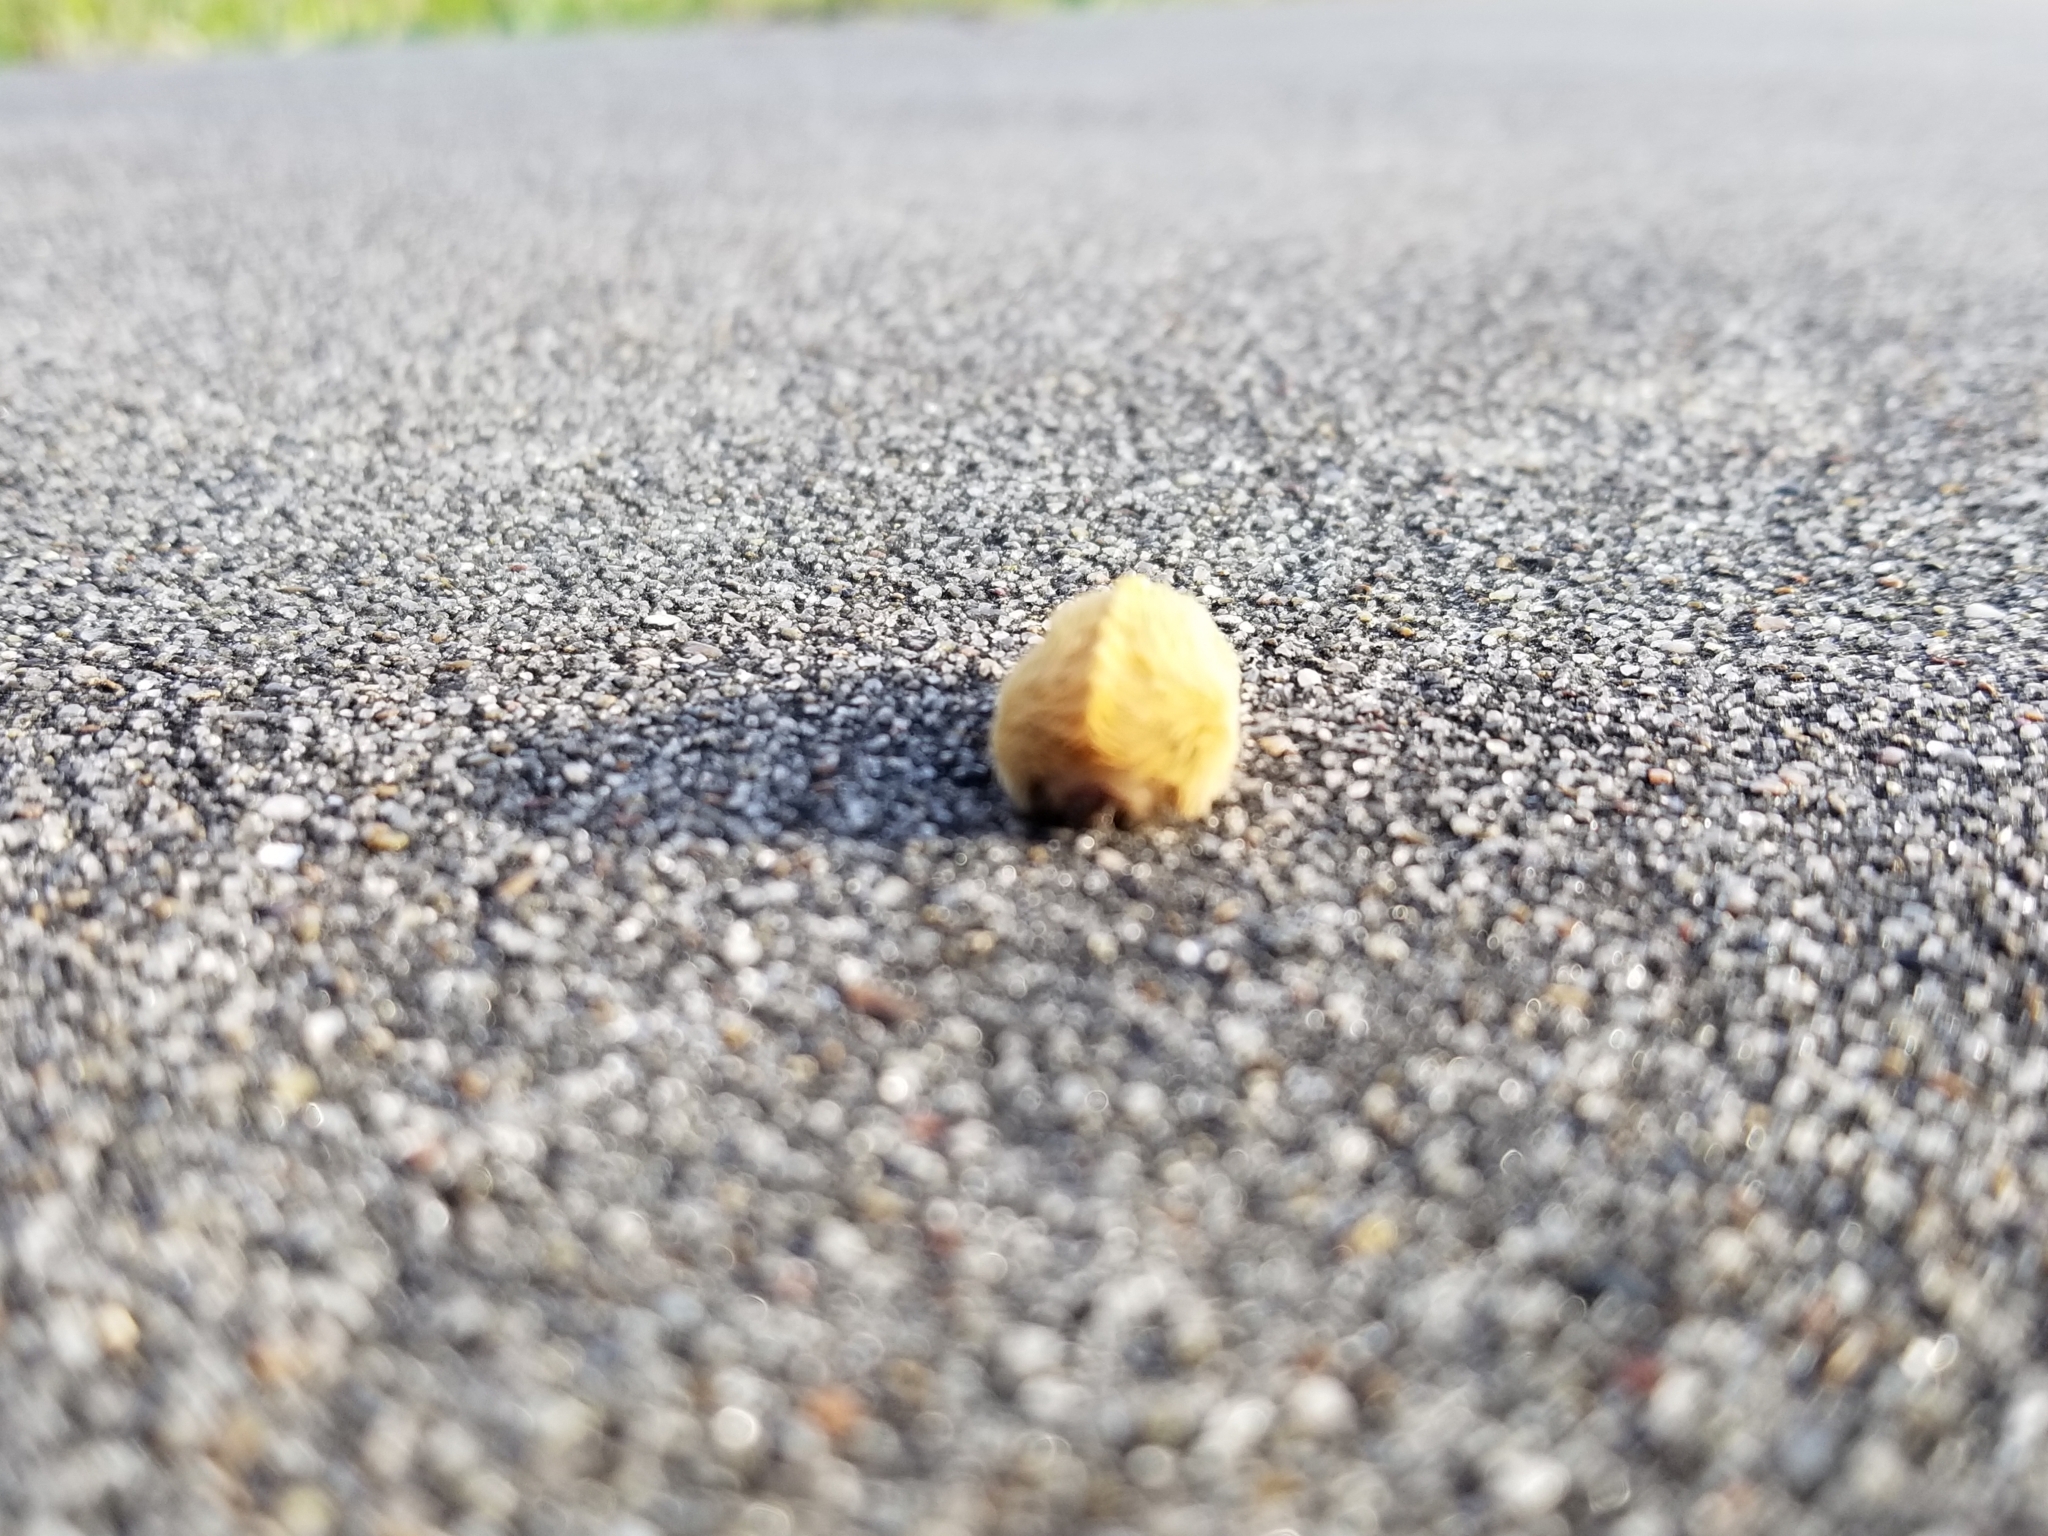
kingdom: Animalia
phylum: Arthropoda
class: Insecta
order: Lepidoptera
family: Megalopygidae
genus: Megalopyge
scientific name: Megalopyge opercularis
